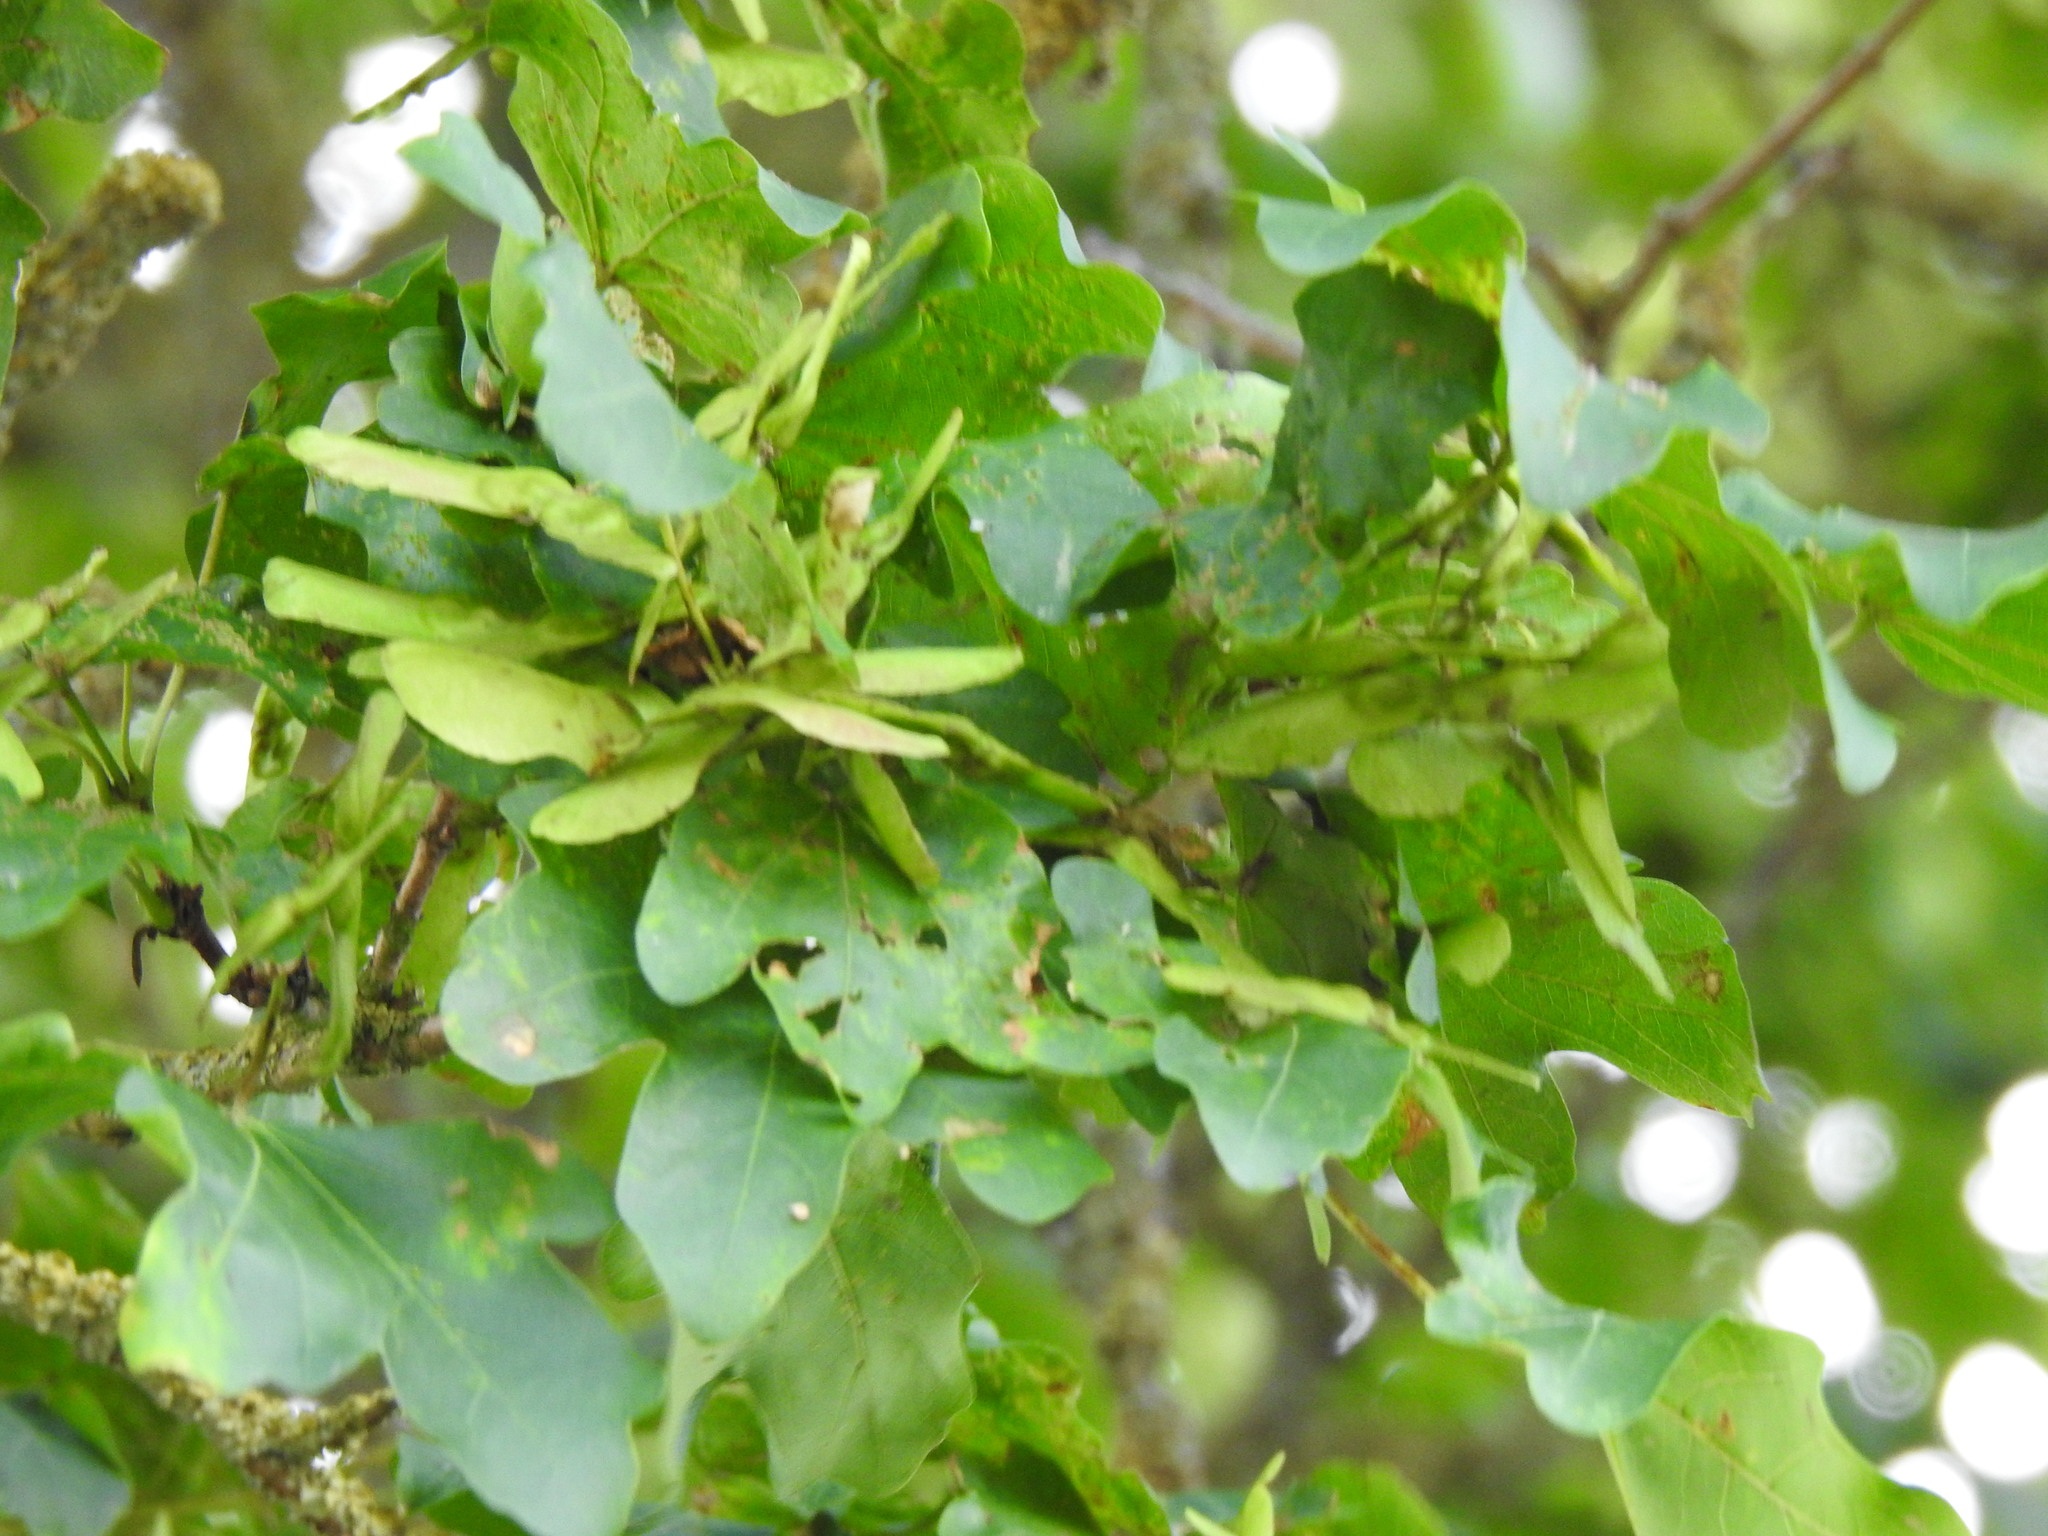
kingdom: Plantae
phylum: Tracheophyta
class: Magnoliopsida
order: Sapindales
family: Sapindaceae
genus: Acer
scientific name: Acer campestre
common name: Field maple
